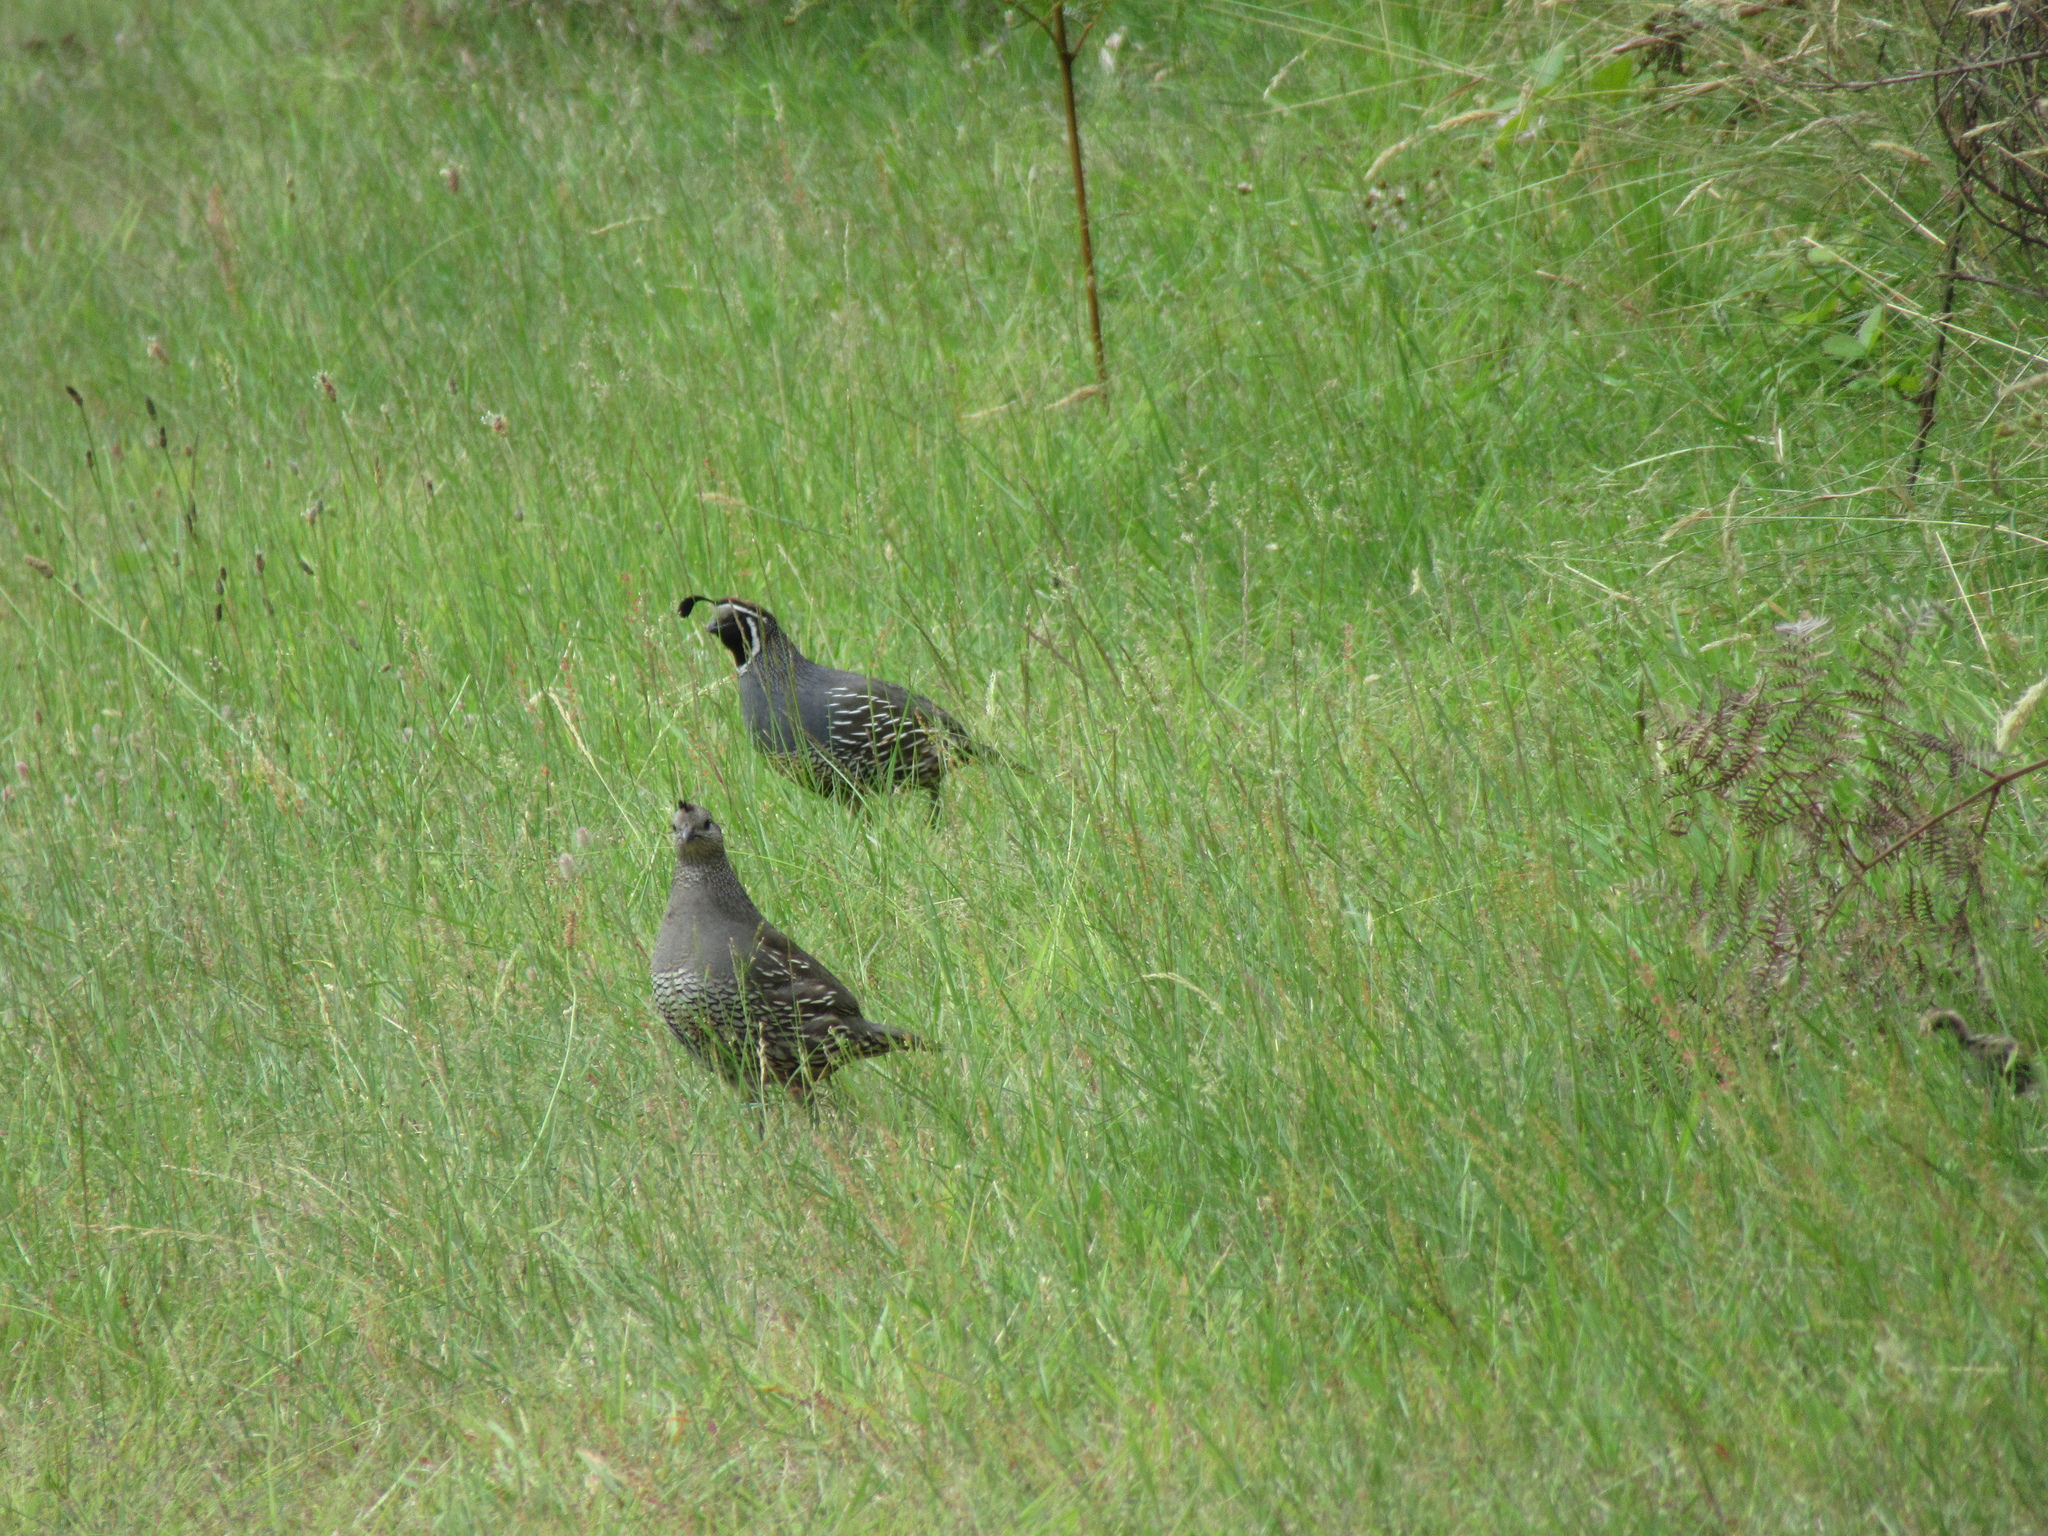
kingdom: Animalia
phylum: Chordata
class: Aves
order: Galliformes
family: Odontophoridae
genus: Callipepla
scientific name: Callipepla californica
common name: California quail
